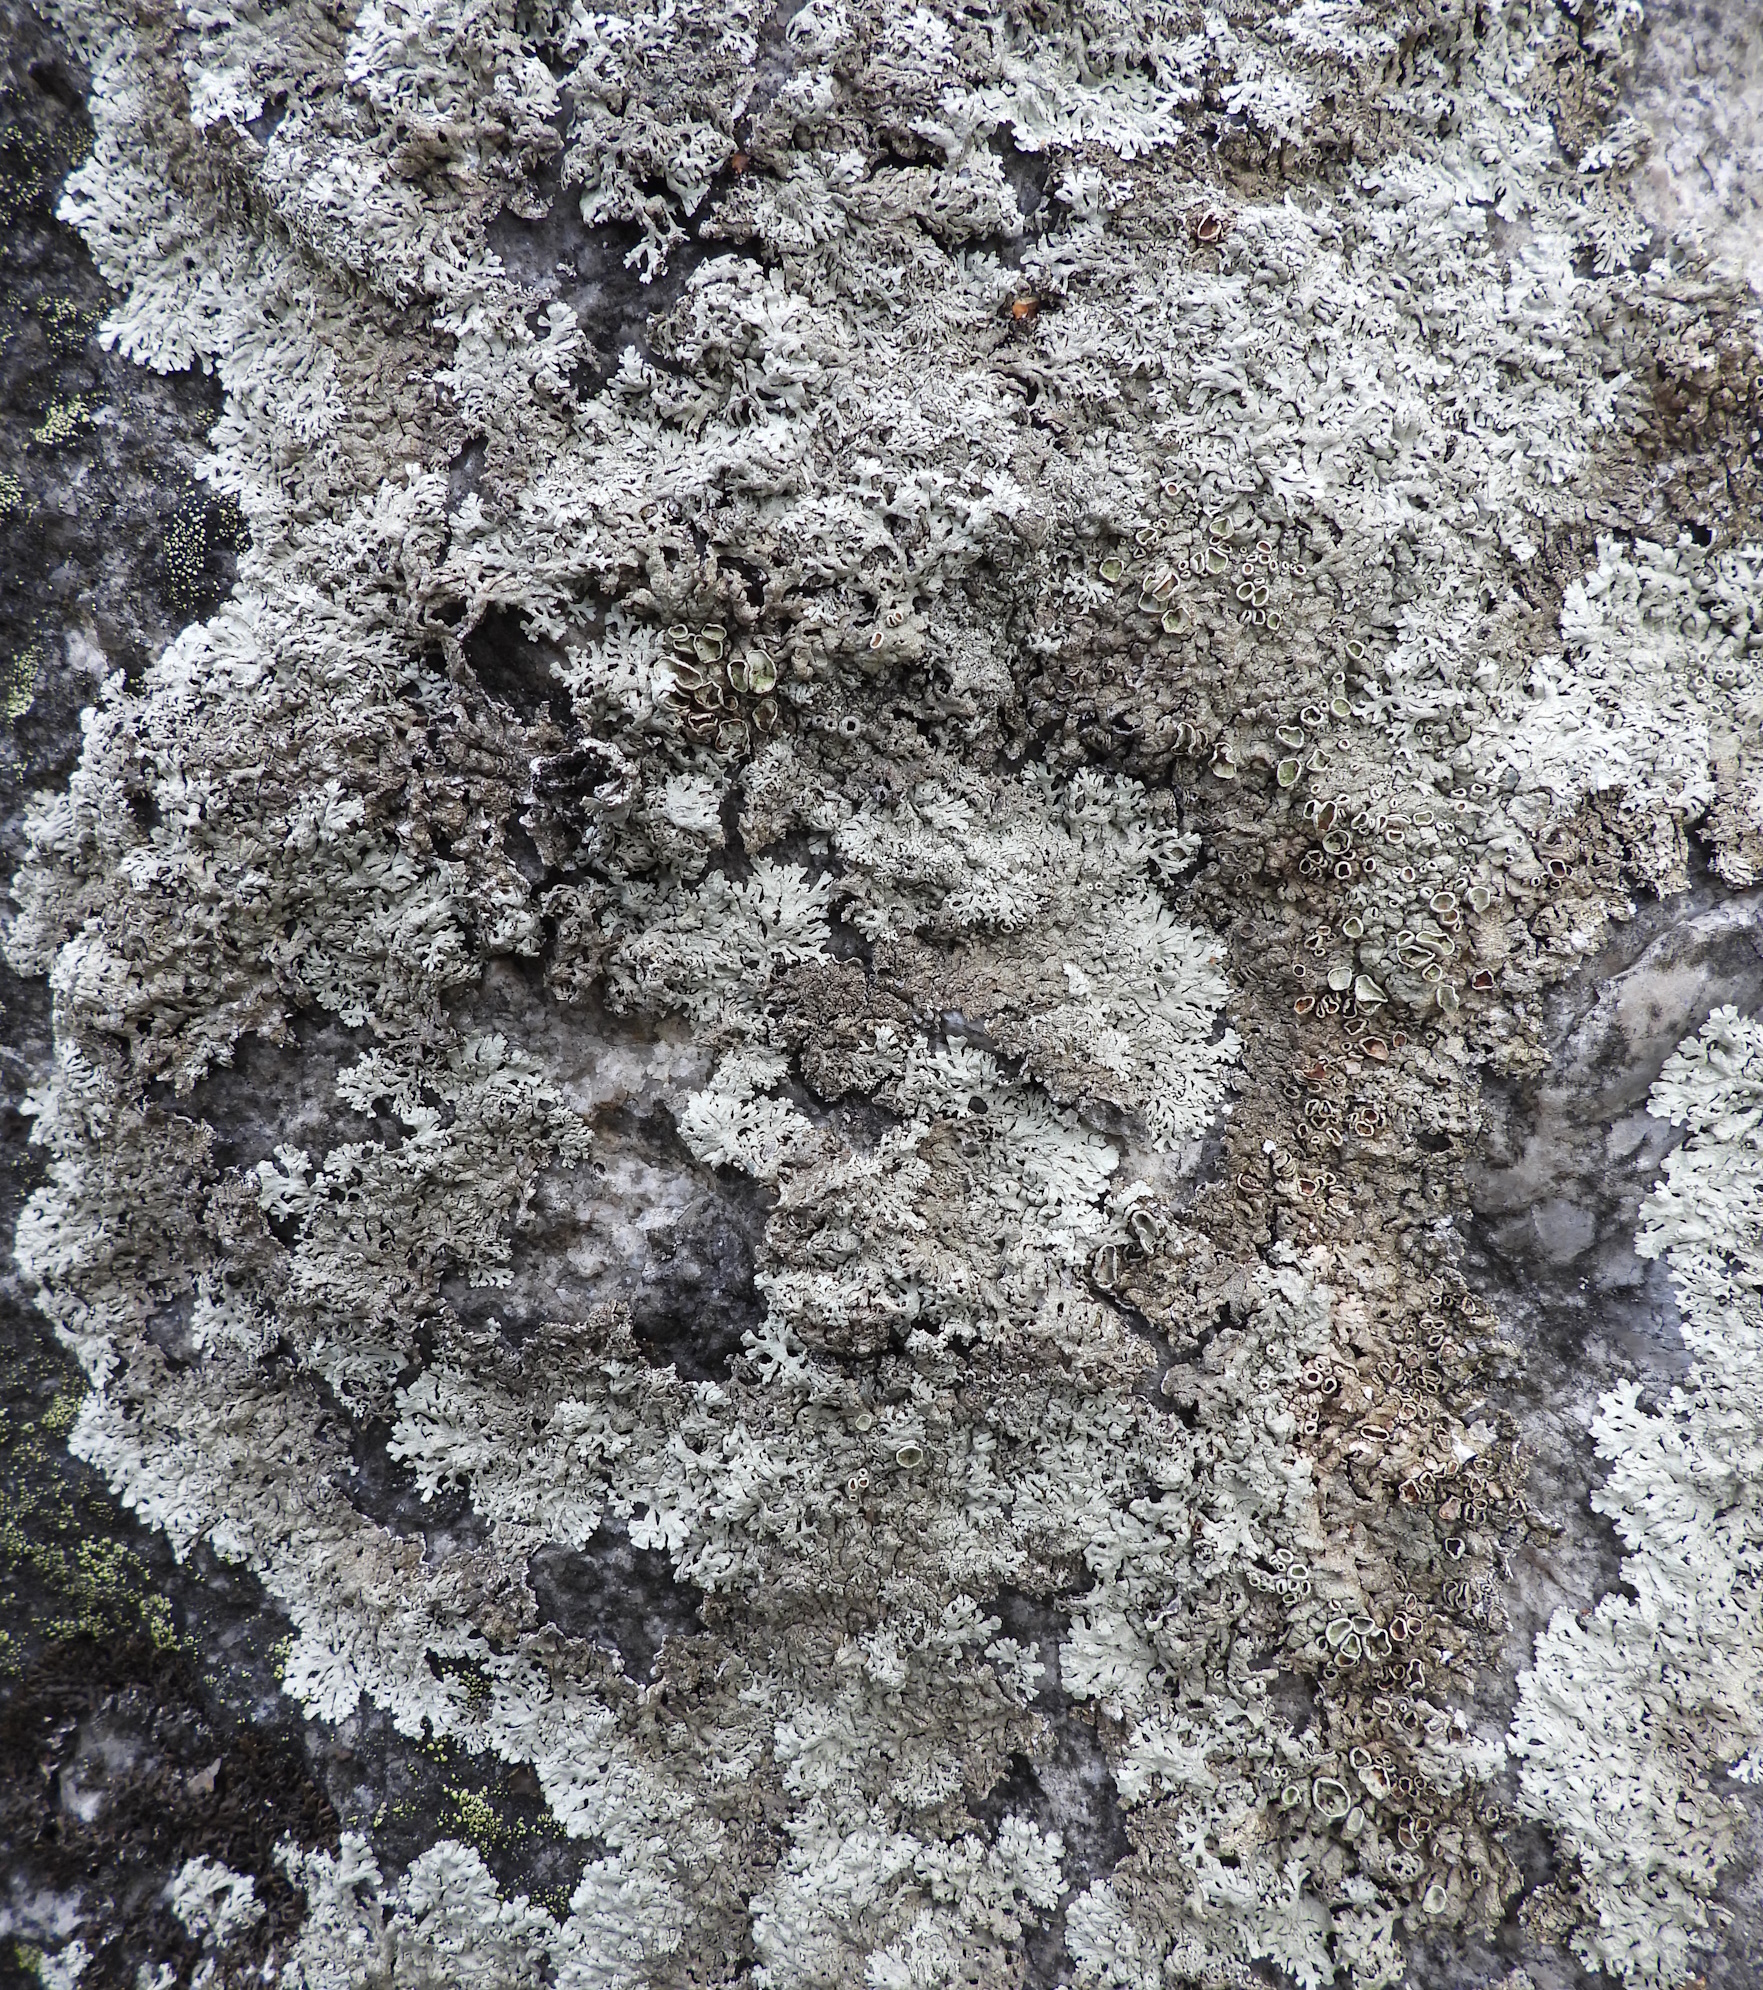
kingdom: Fungi
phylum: Ascomycota
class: Lecanoromycetes
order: Lecanorales
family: Parmeliaceae
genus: Arctoparmelia
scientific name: Arctoparmelia centrifuga
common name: Concentric ring lichen
